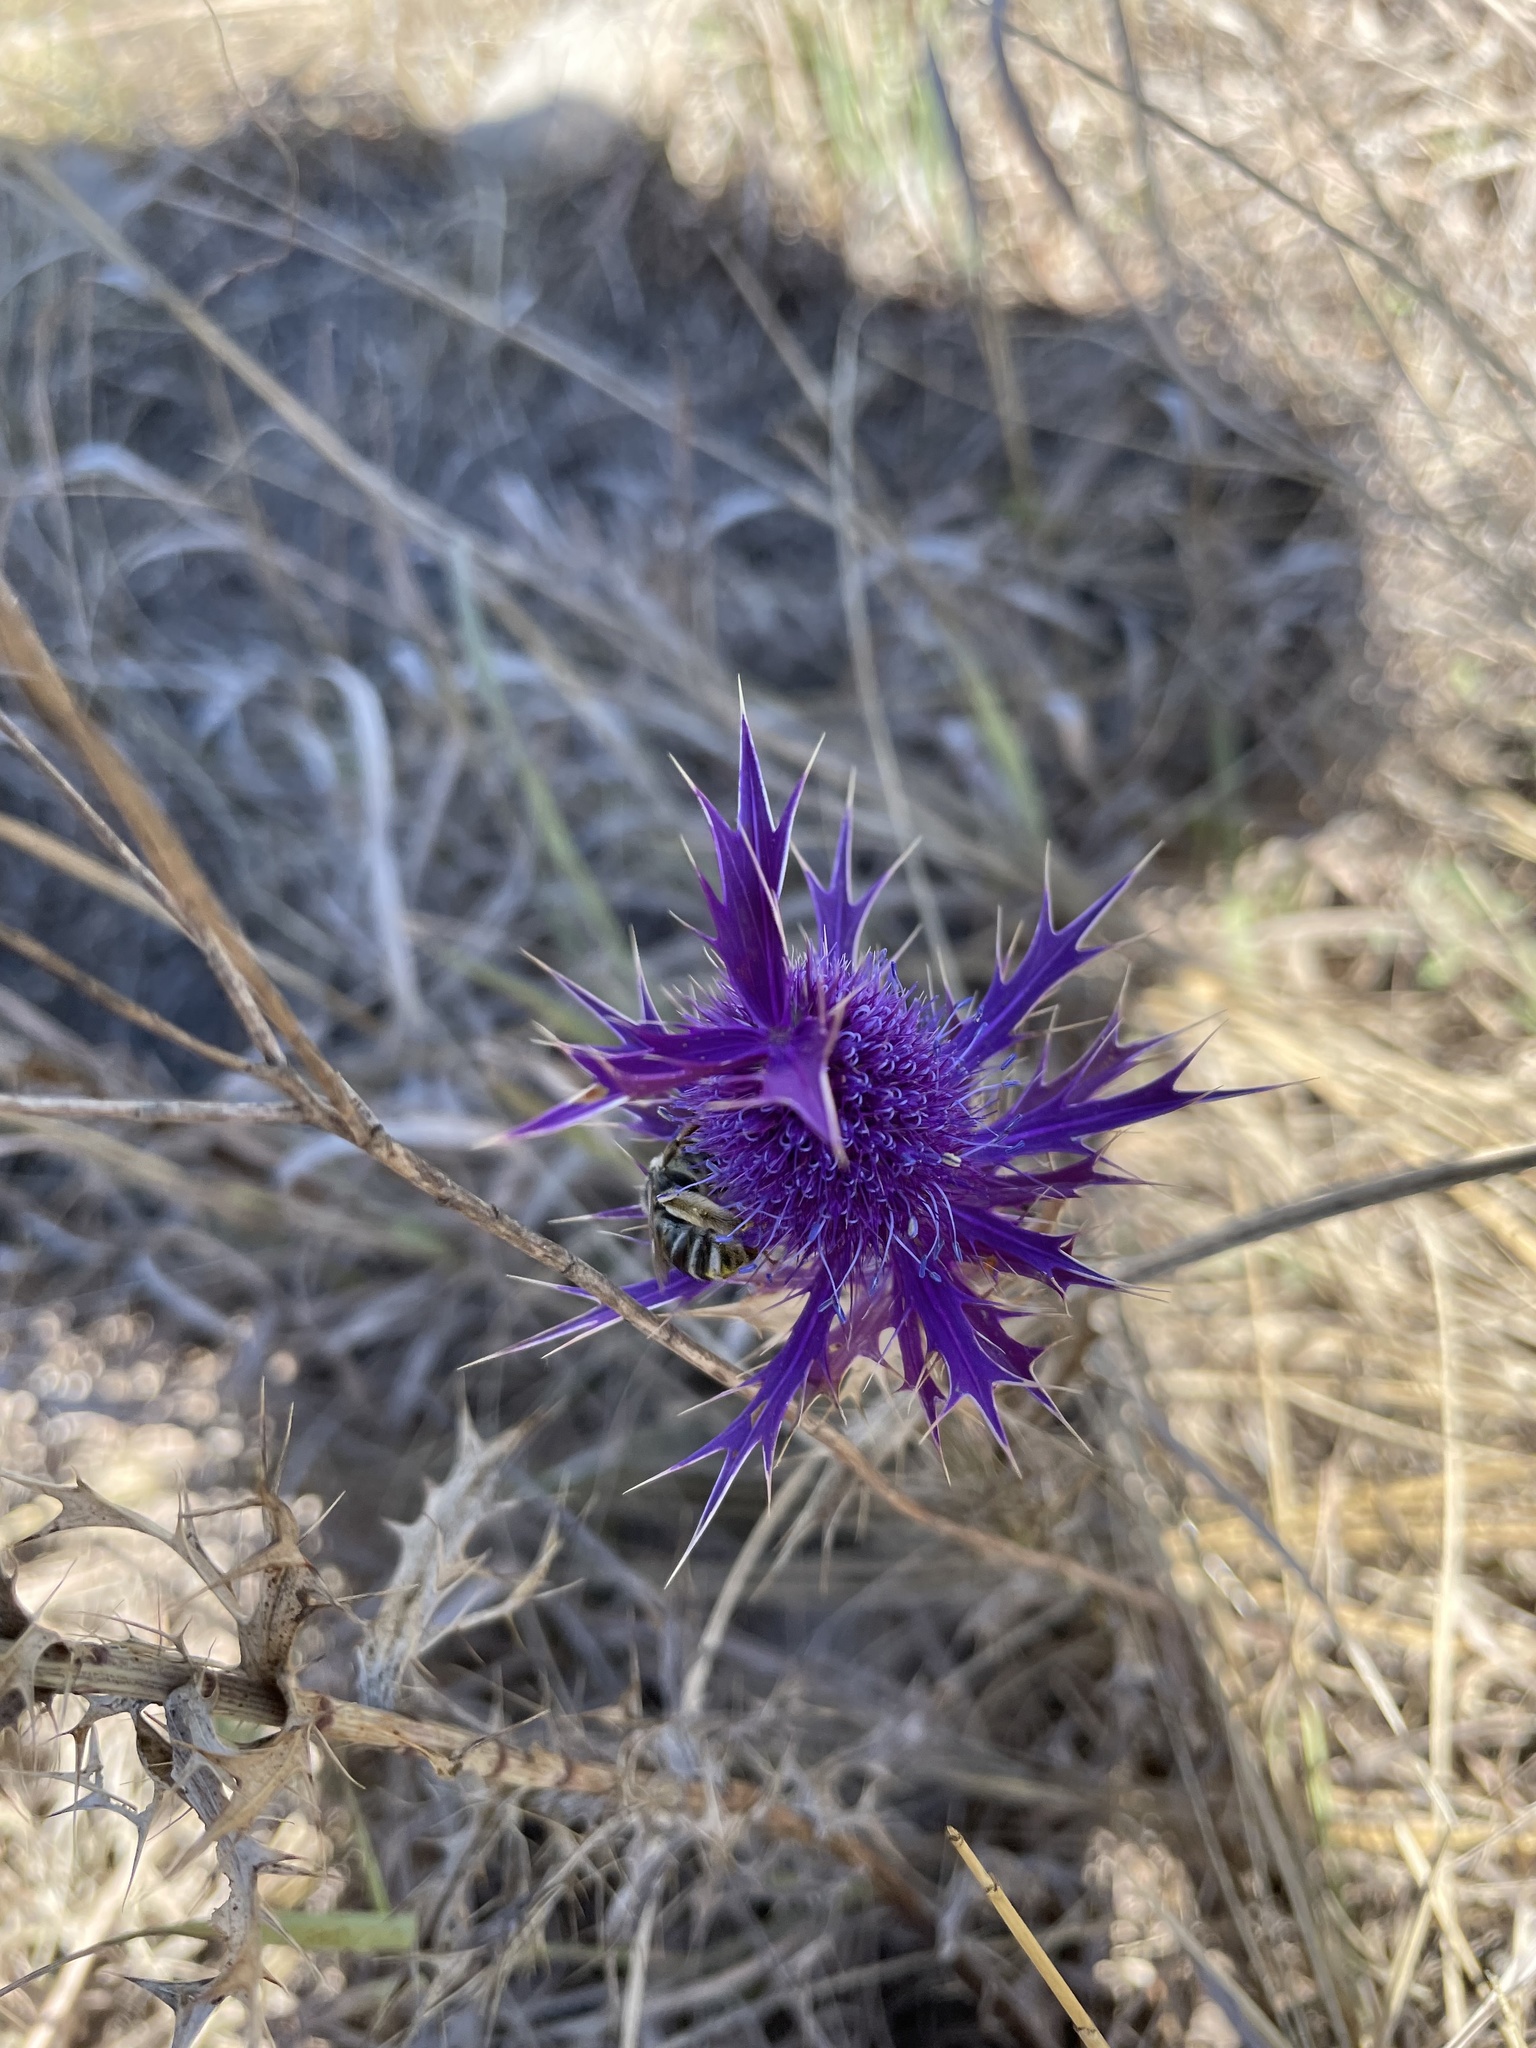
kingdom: Plantae
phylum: Tracheophyta
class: Magnoliopsida
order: Apiales
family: Apiaceae
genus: Eryngium
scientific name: Eryngium leavenworthii
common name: Leavenworth's eryngo
